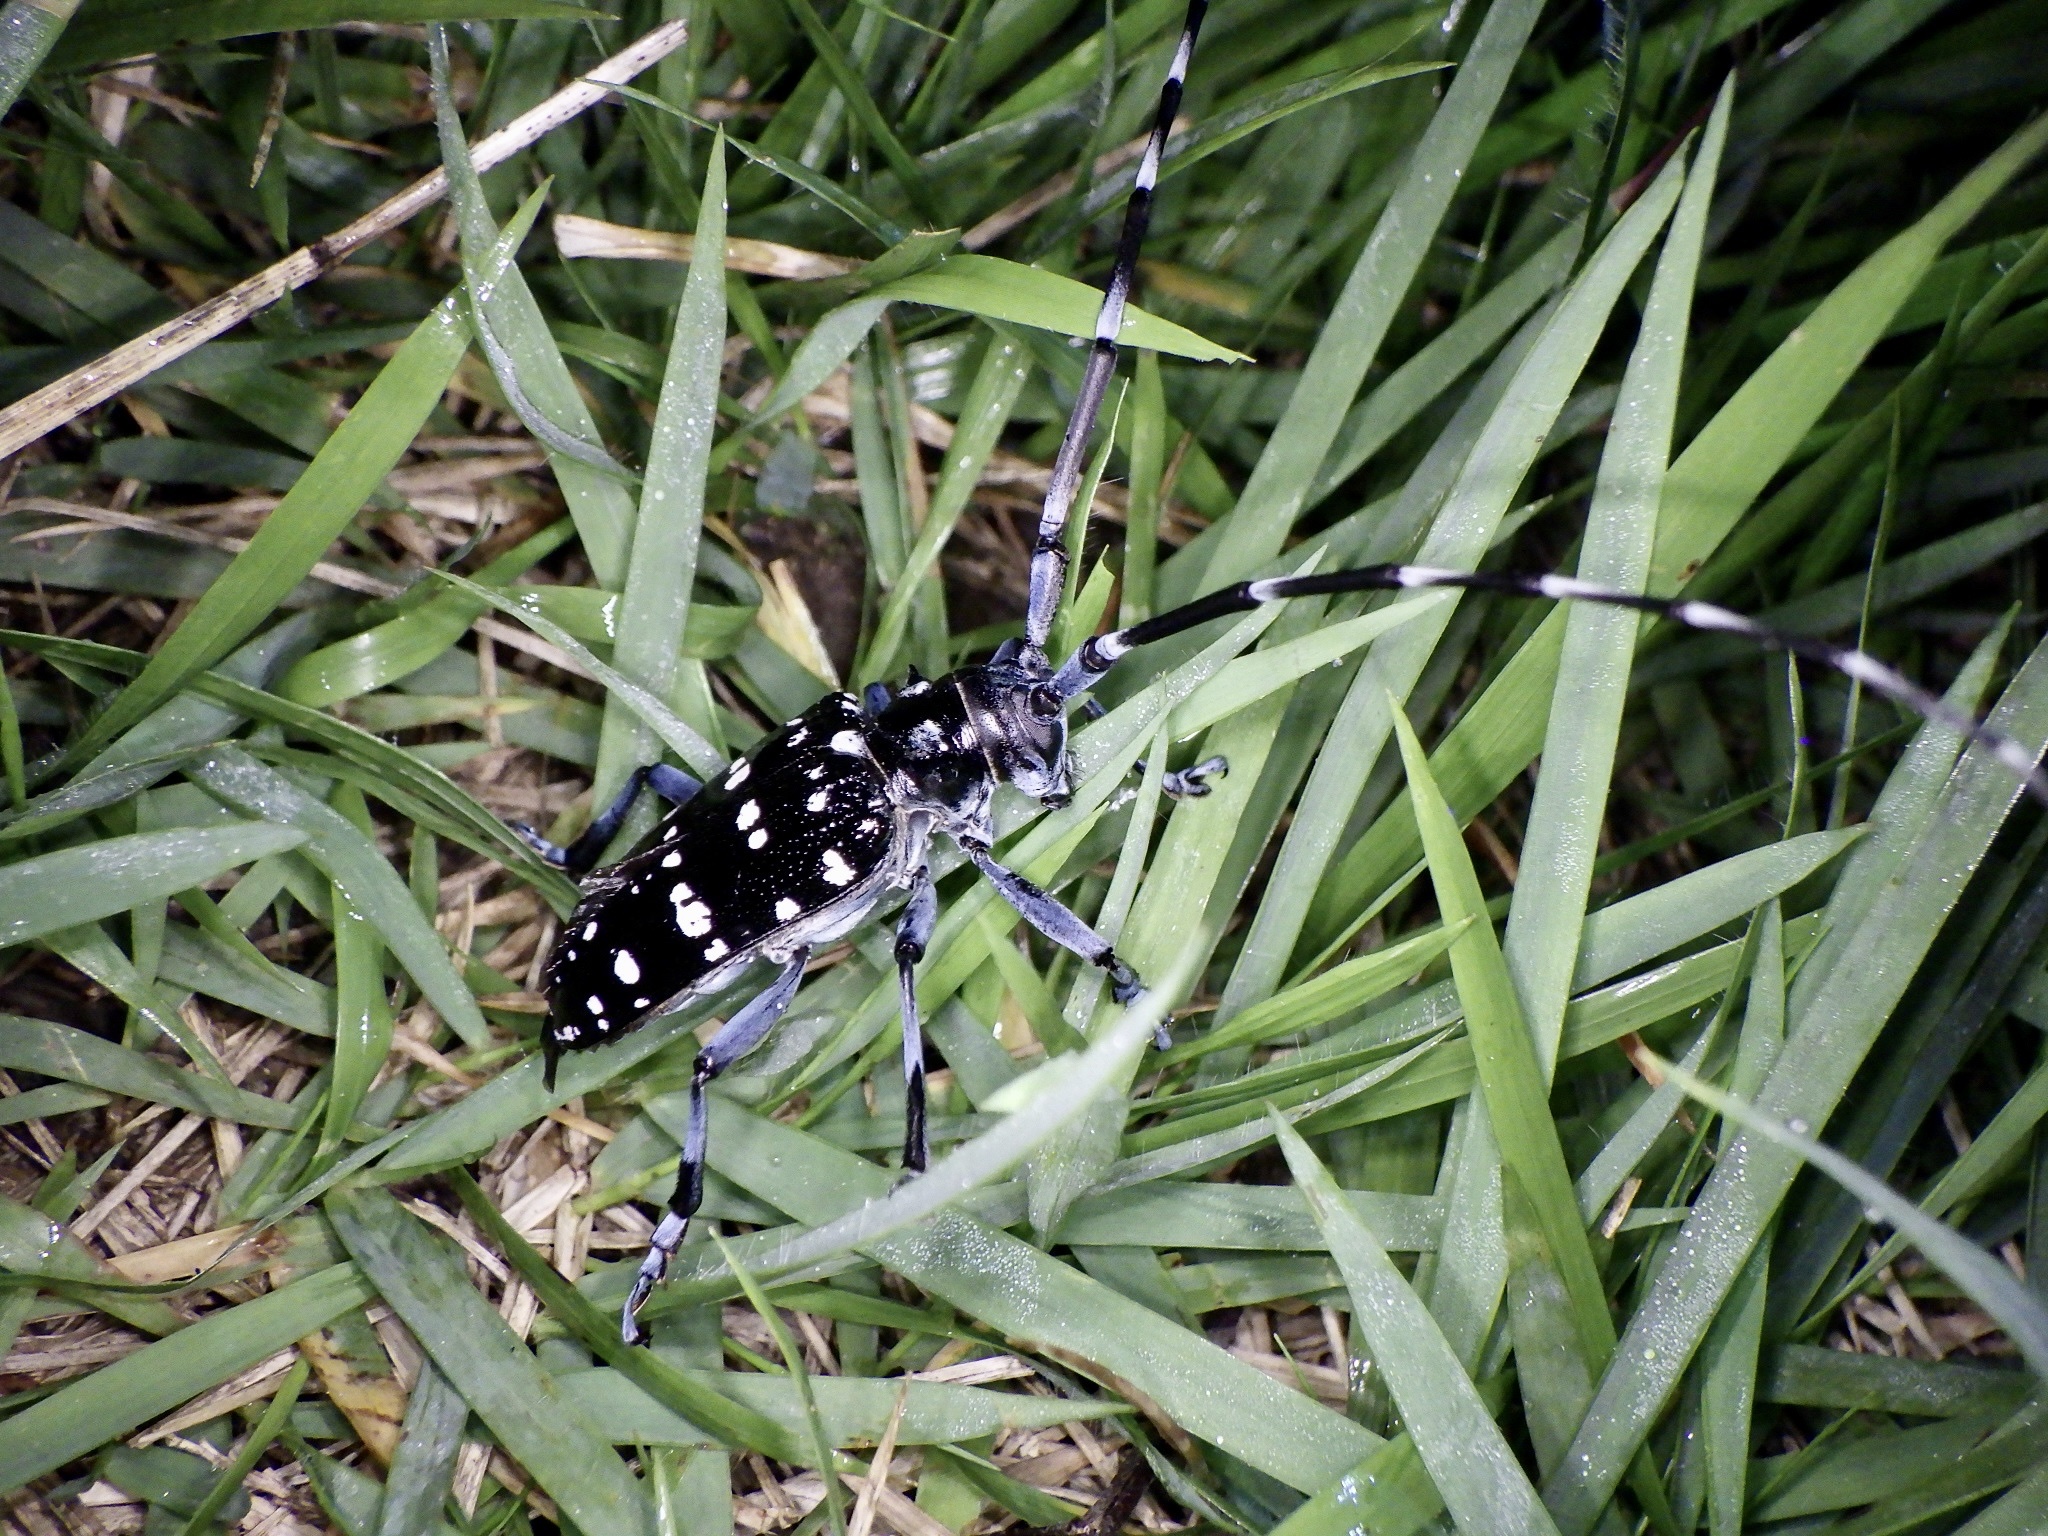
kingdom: Animalia
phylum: Arthropoda
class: Insecta
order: Coleoptera
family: Cerambycidae
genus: Anoplophora
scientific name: Anoplophora chinensis
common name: Citrus longhorned beetle
